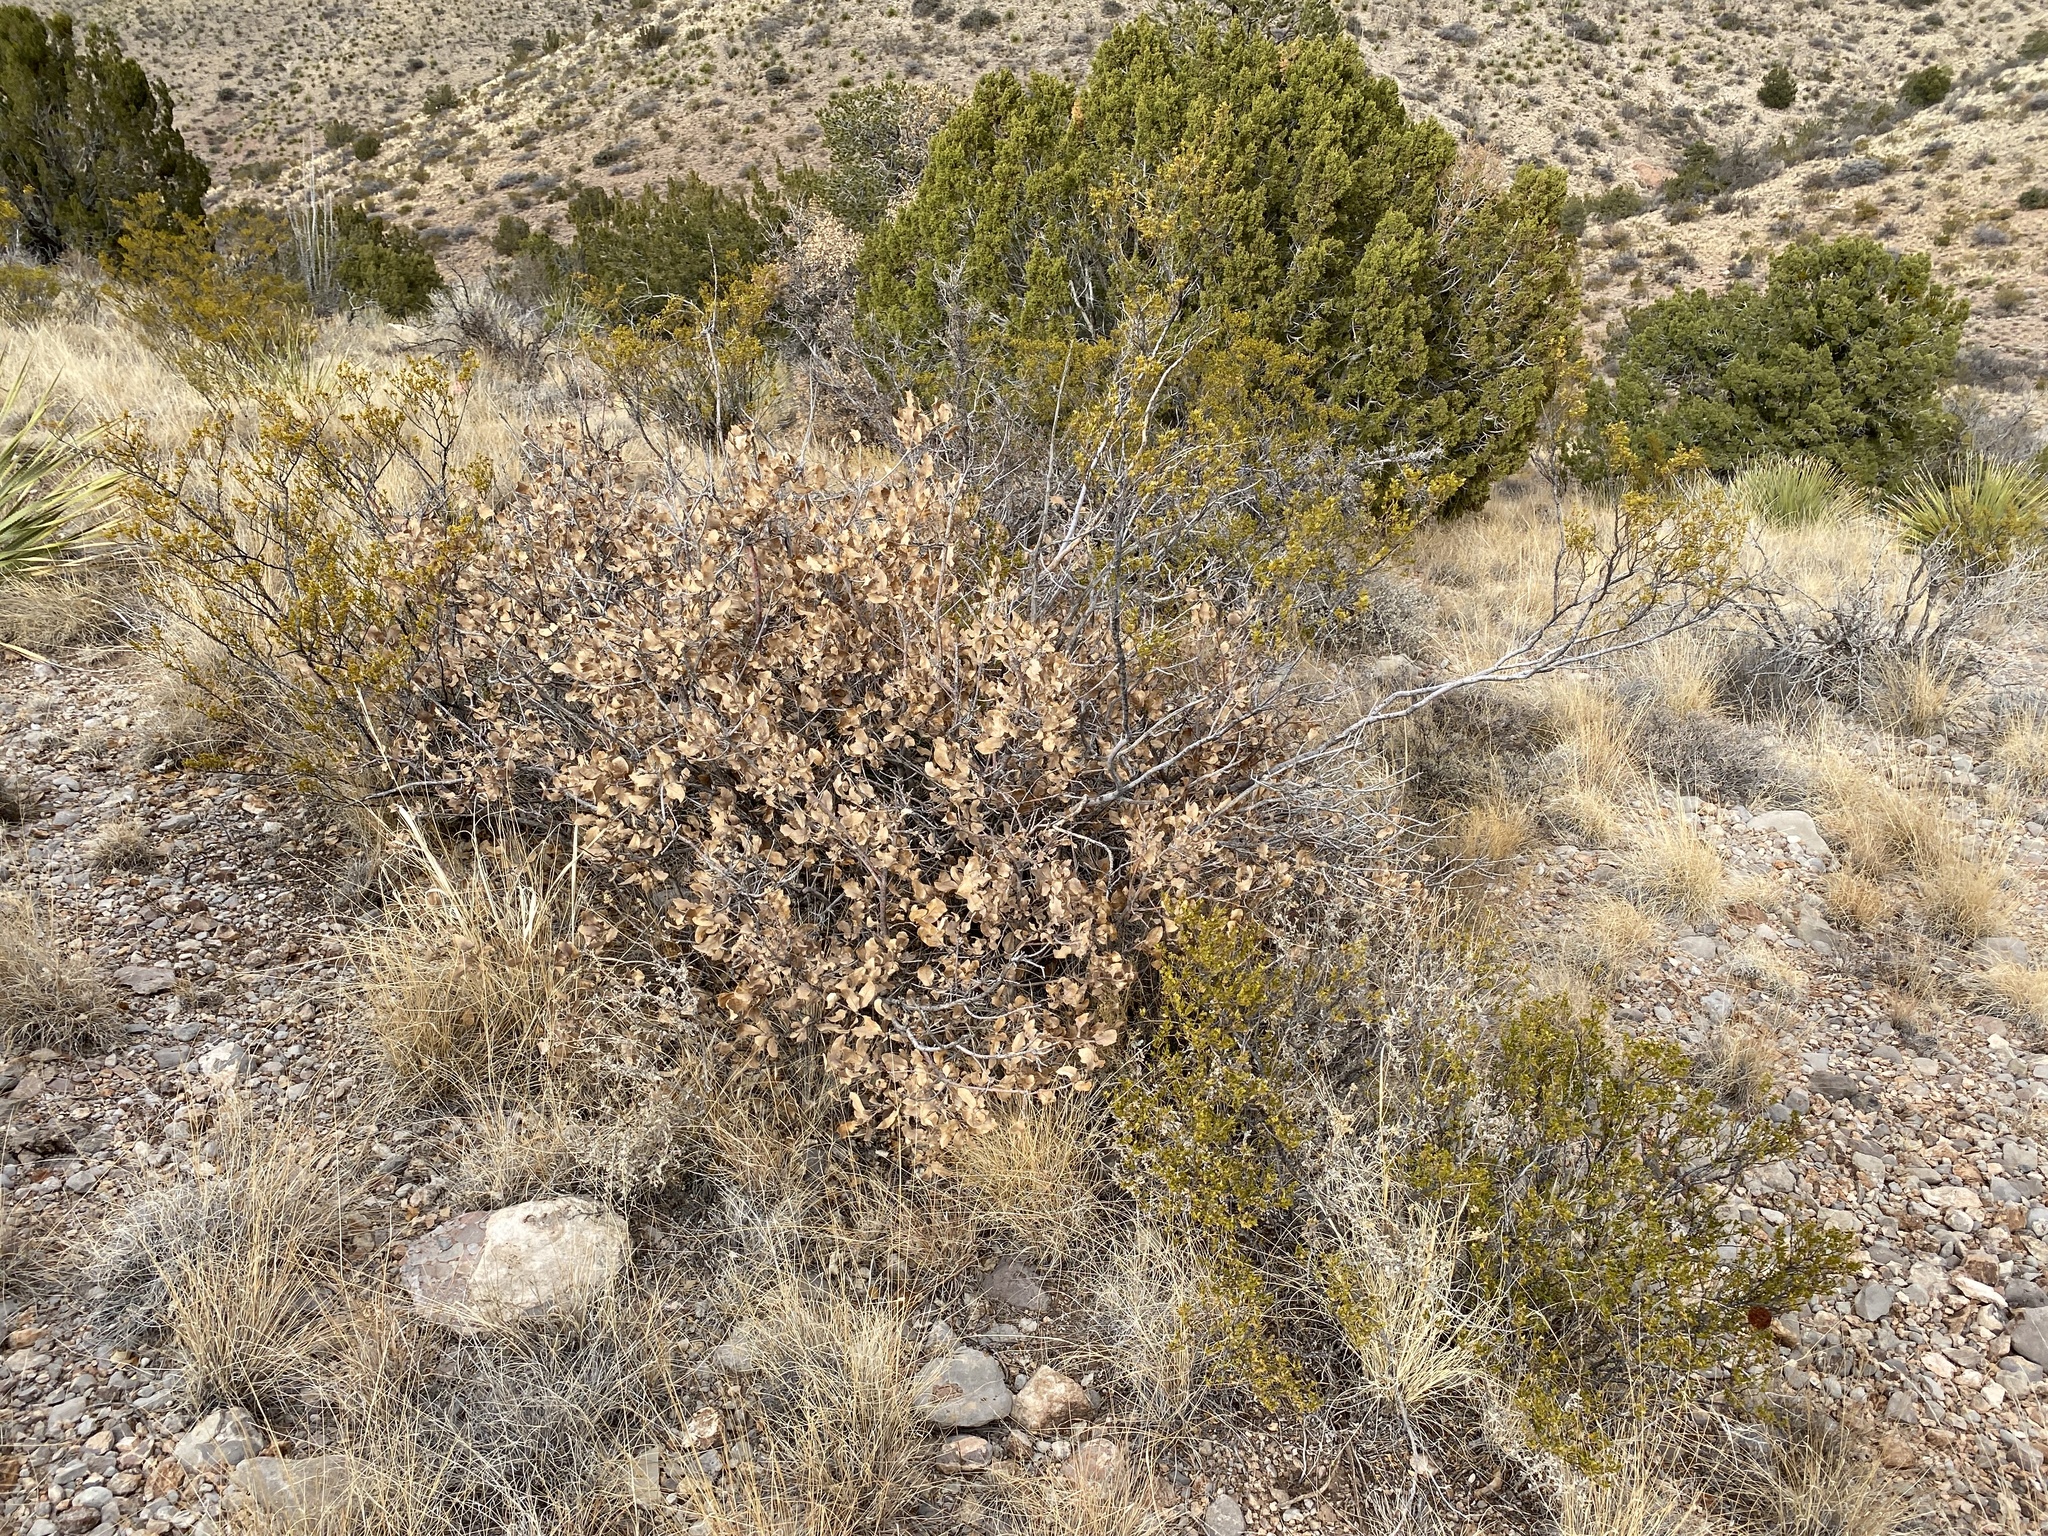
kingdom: Plantae
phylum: Tracheophyta
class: Magnoliopsida
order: Fagales
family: Fagaceae
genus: Quercus
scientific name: Quercus undulata
